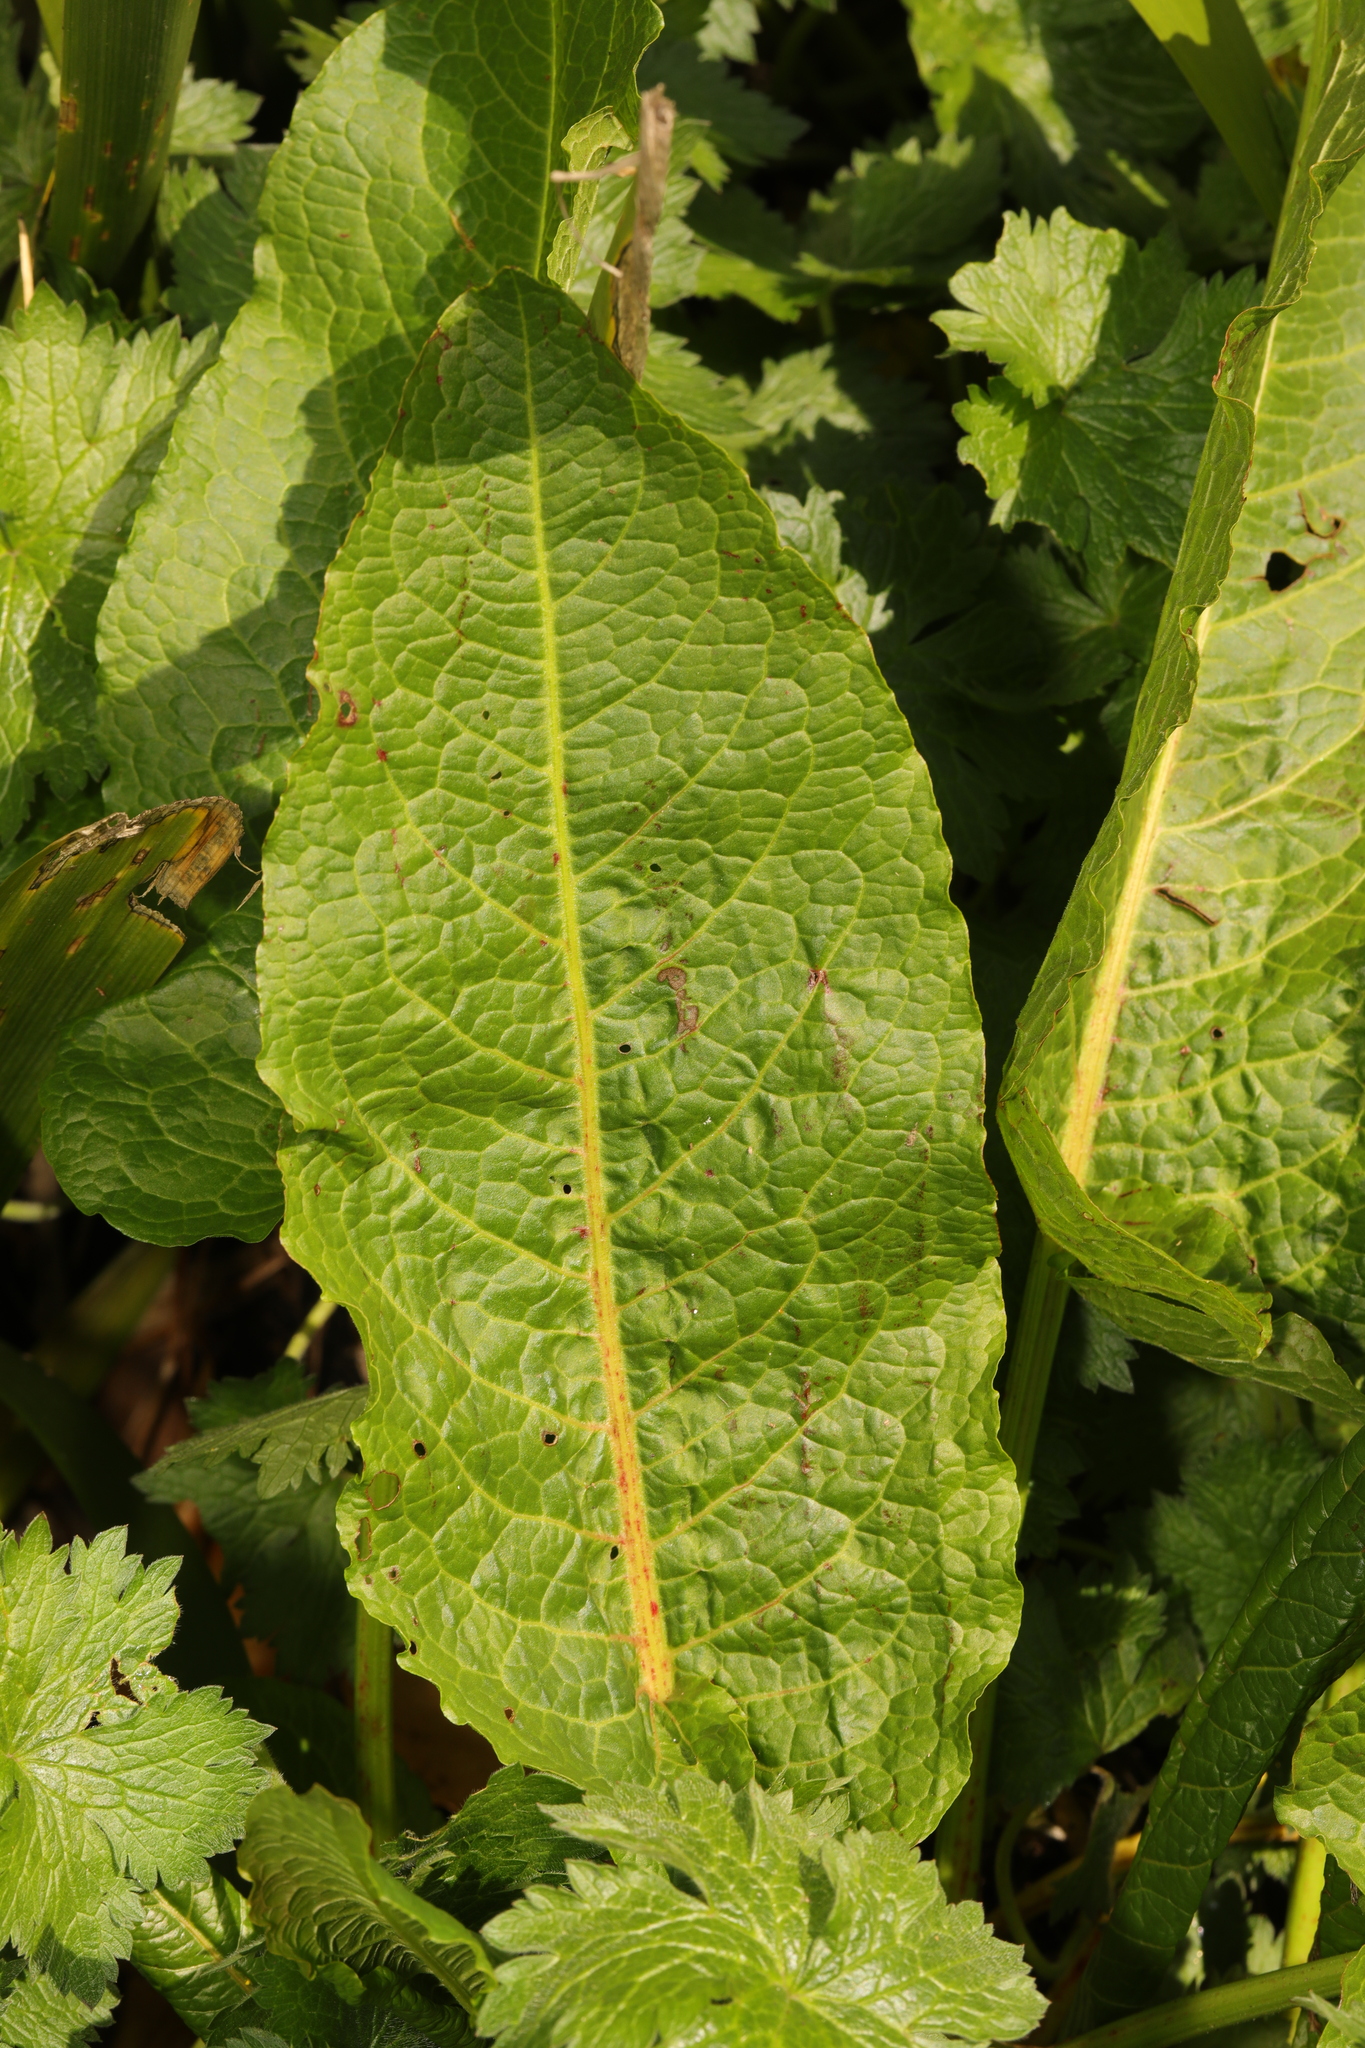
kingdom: Plantae
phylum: Tracheophyta
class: Magnoliopsida
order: Caryophyllales
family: Polygonaceae
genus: Rumex
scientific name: Rumex obtusifolius
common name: Bitter dock
